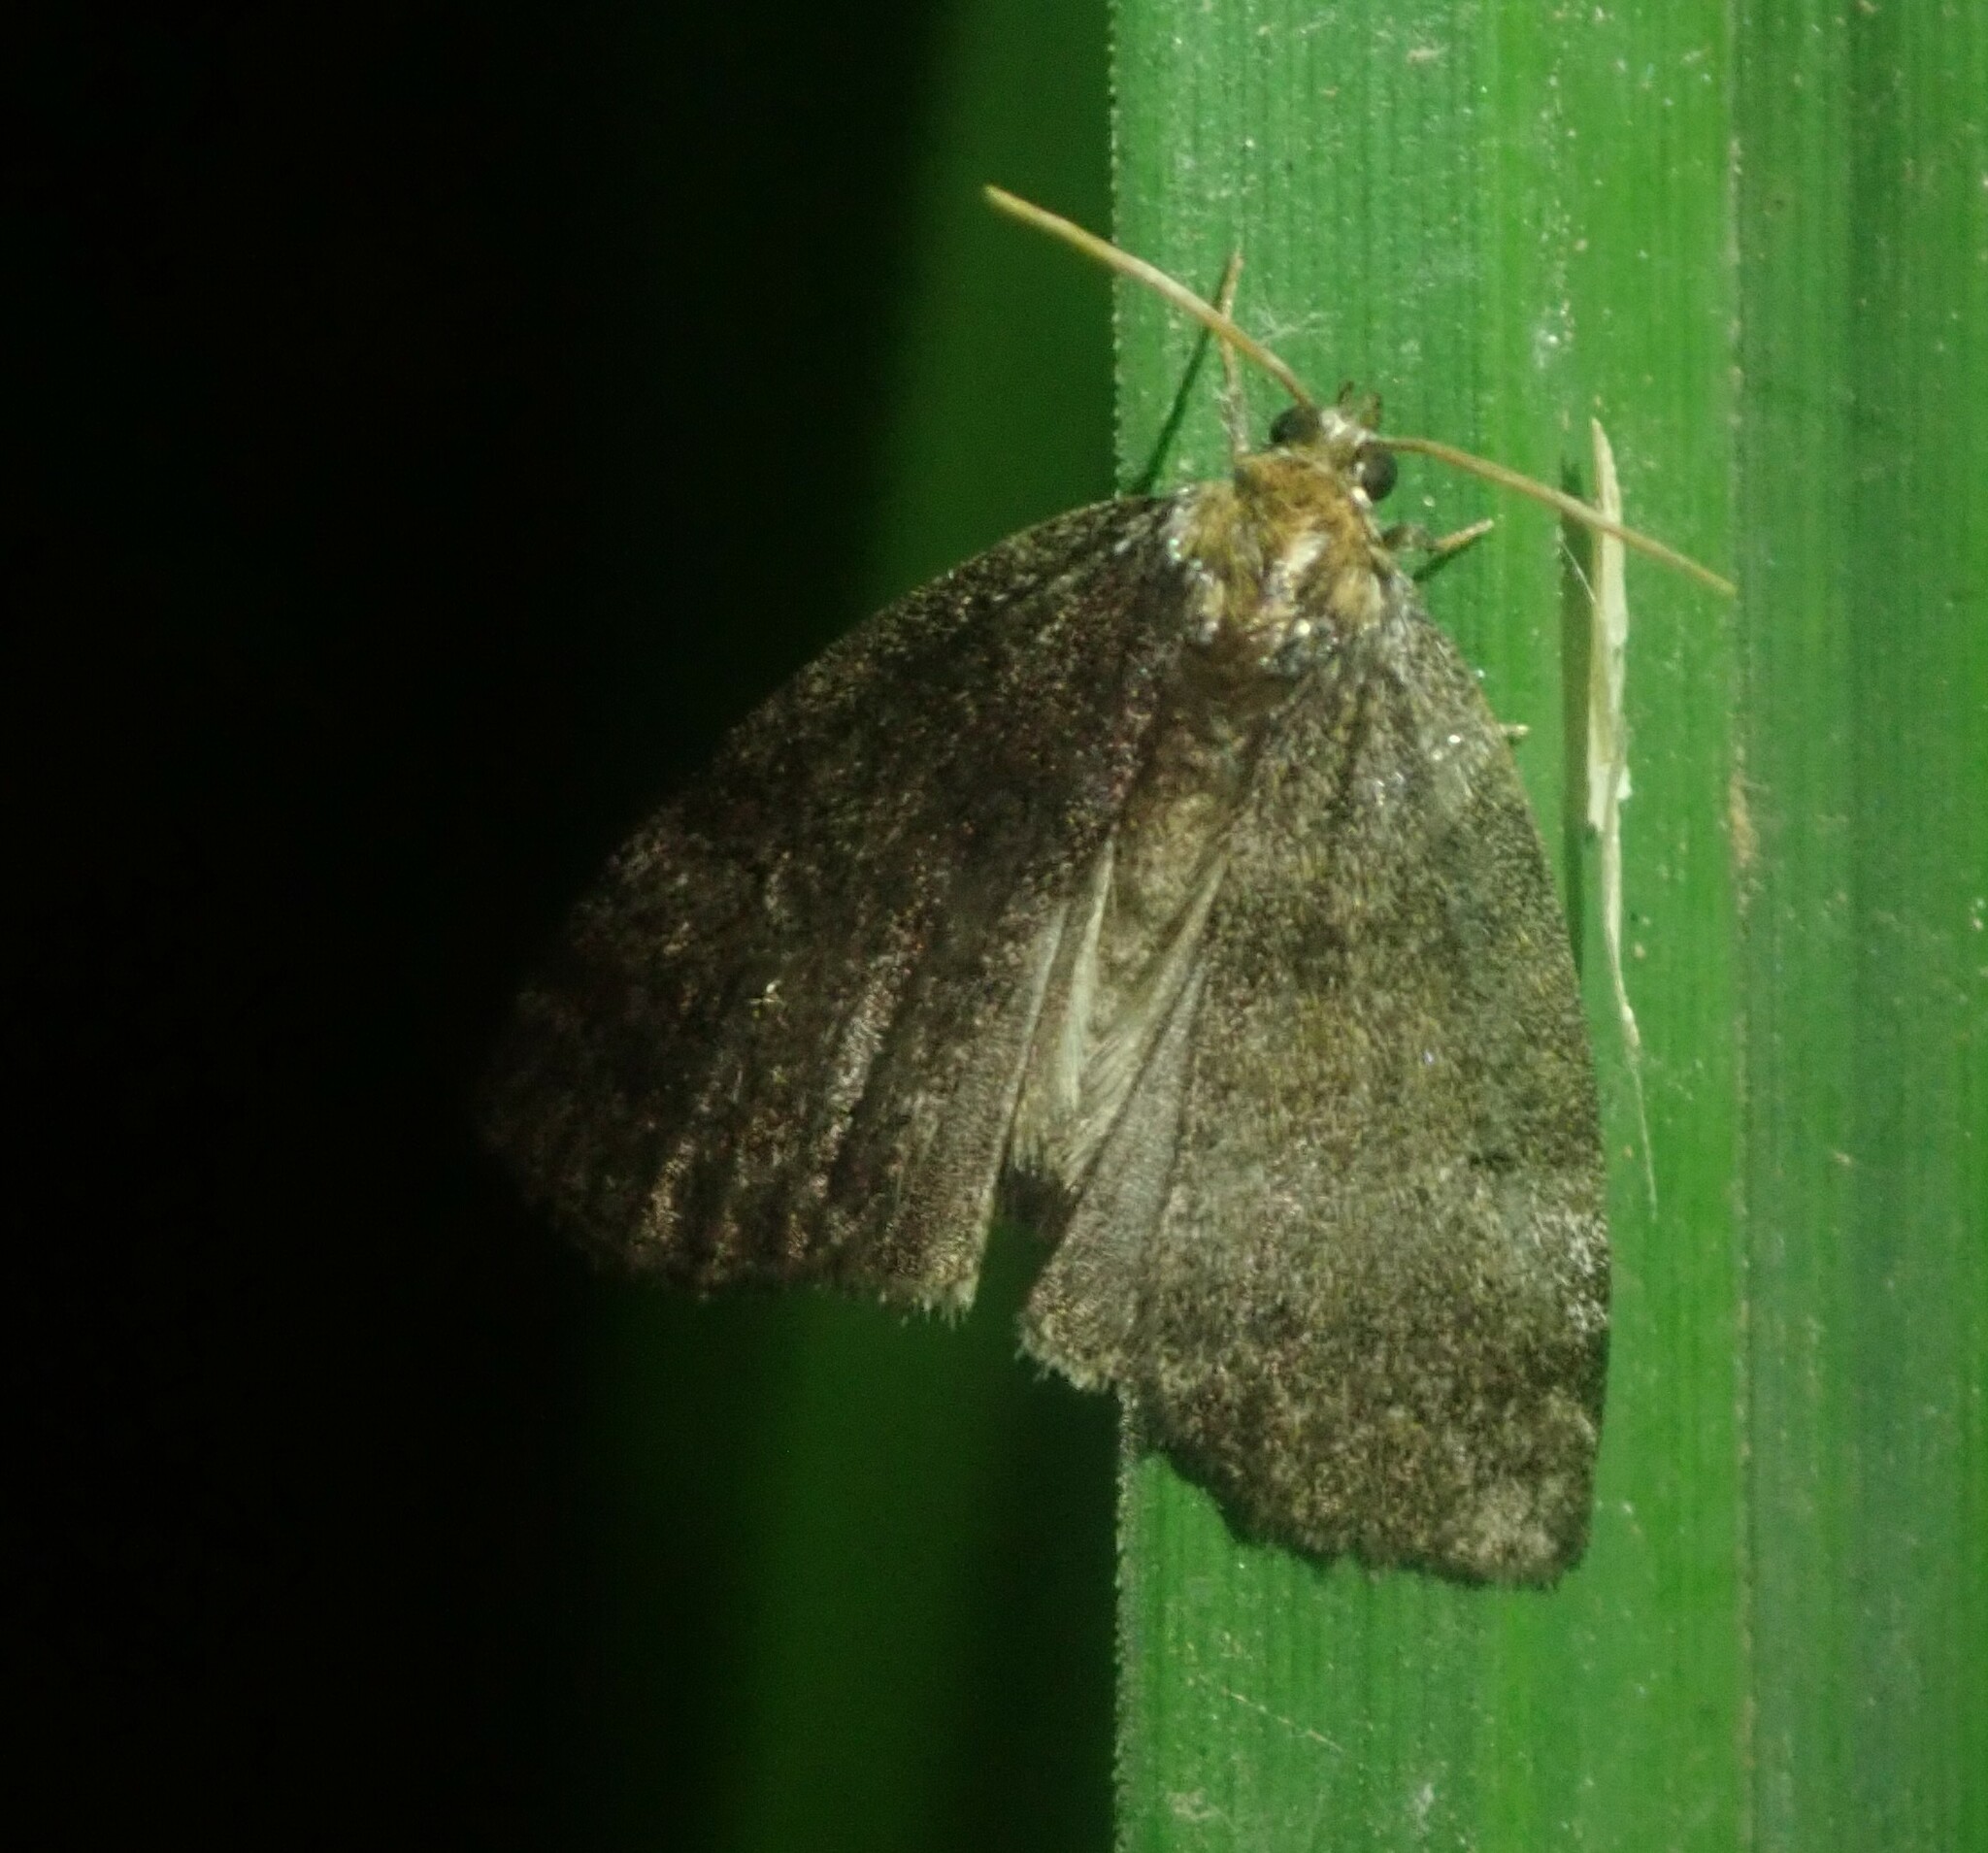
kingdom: Animalia
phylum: Arthropoda
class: Insecta
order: Lepidoptera
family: Drepanidae
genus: Ochropacha
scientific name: Ochropacha duplaris
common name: Common lutestring
